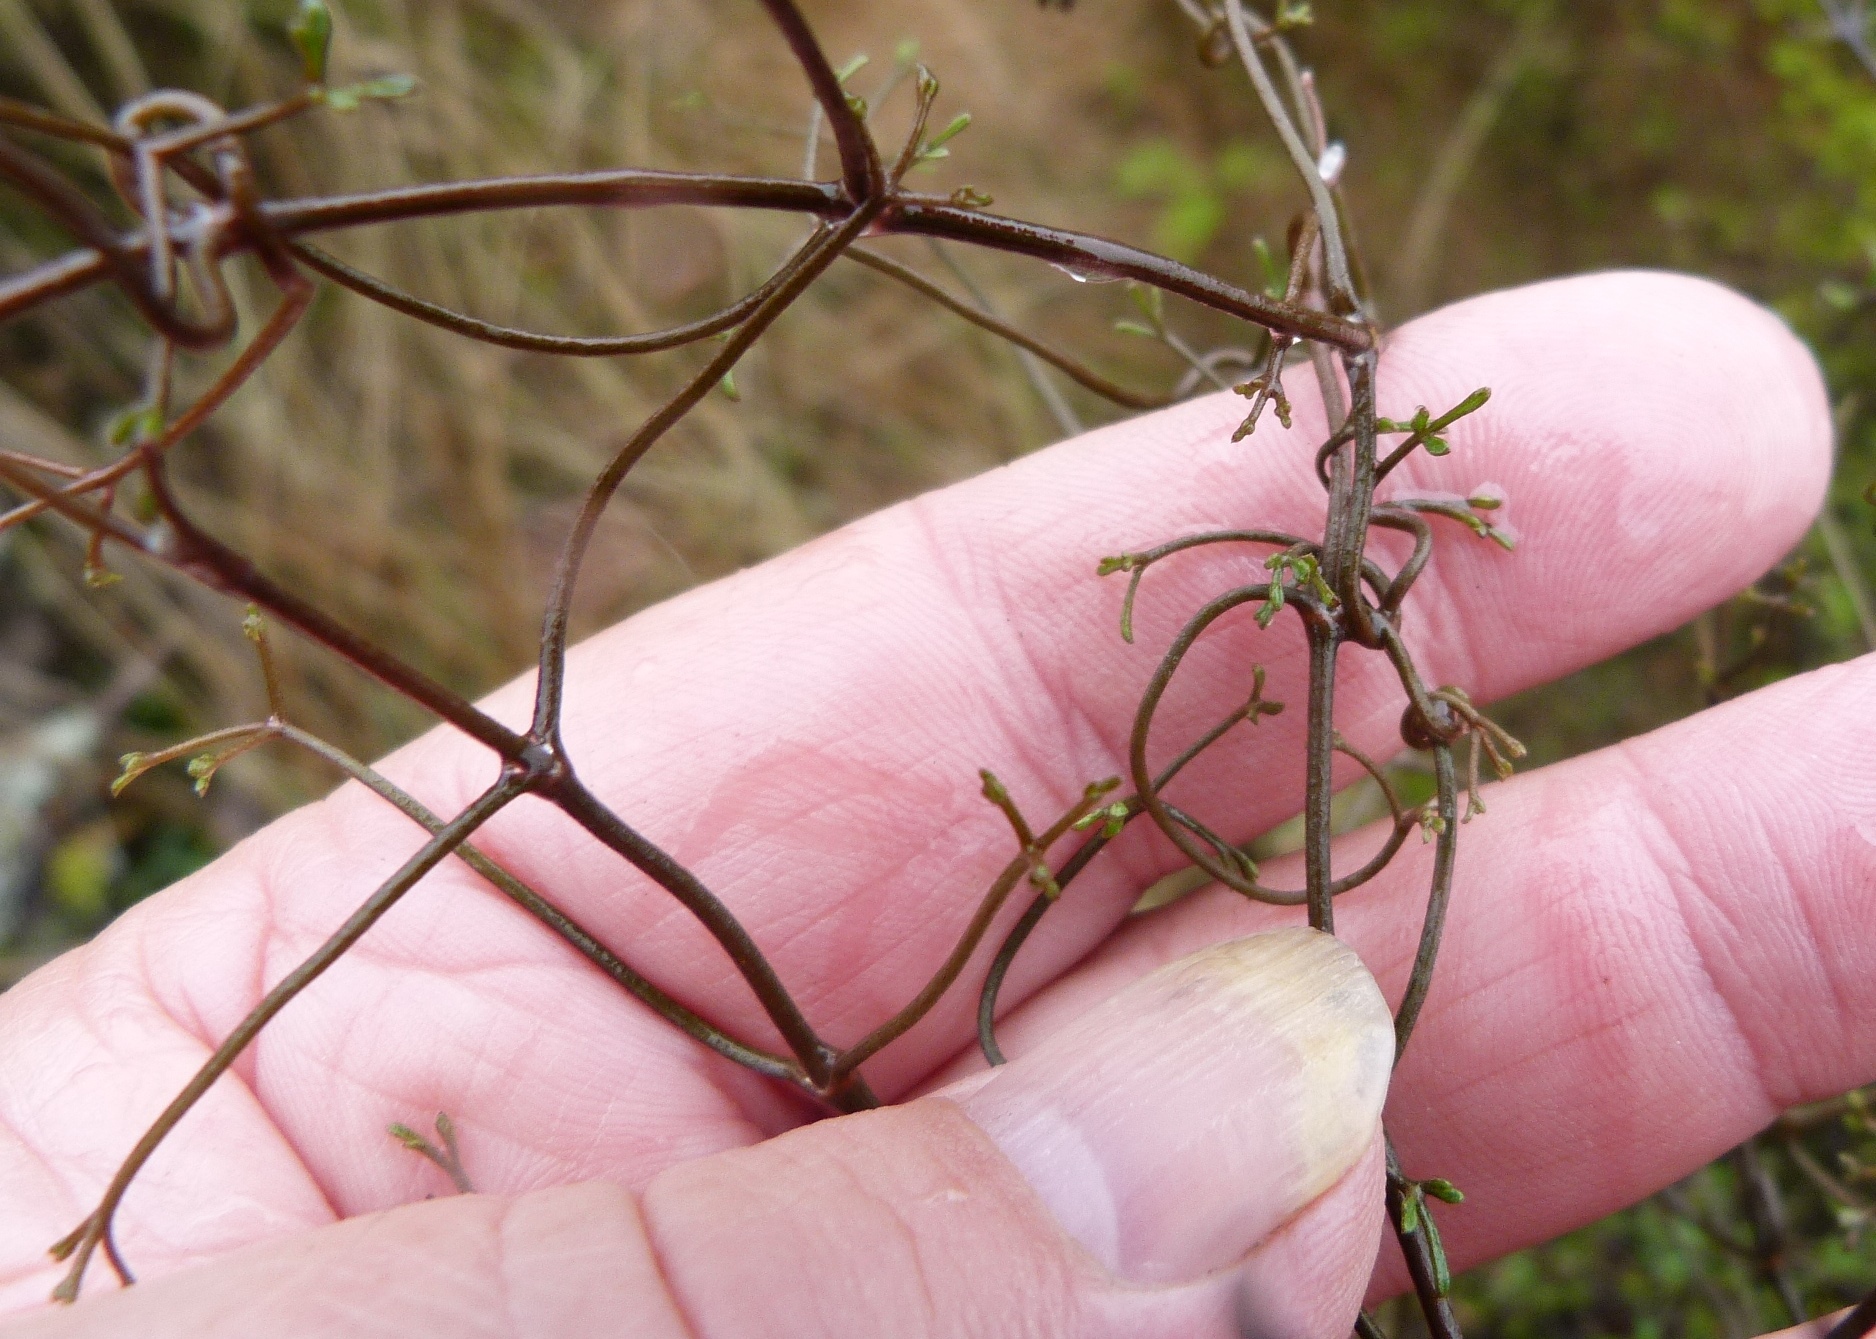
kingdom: Plantae
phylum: Tracheophyta
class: Magnoliopsida
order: Ranunculales
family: Ranunculaceae
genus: Clematis
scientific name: Clematis marata
